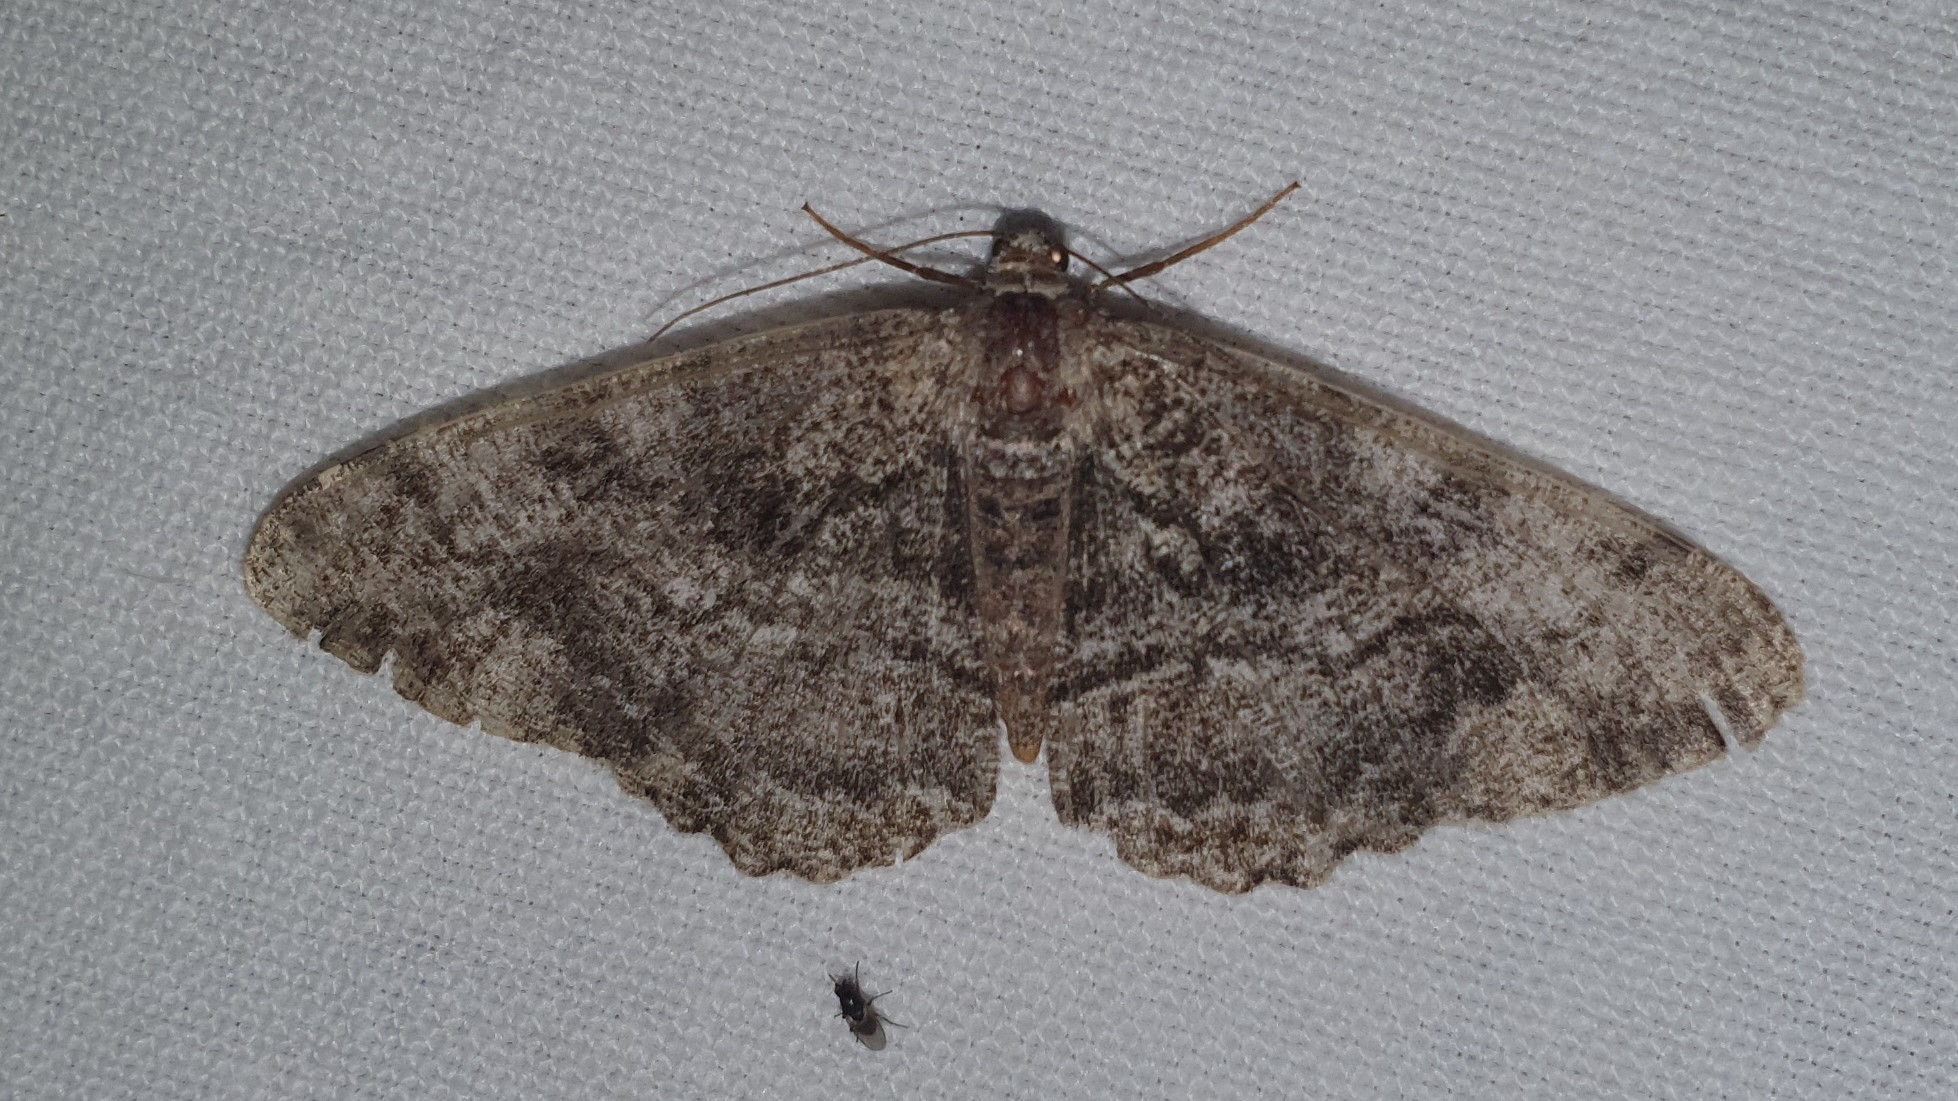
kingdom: Animalia
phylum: Arthropoda
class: Insecta
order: Lepidoptera
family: Geometridae
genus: Alcis
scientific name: Alcis repandata
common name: Mottled beauty
